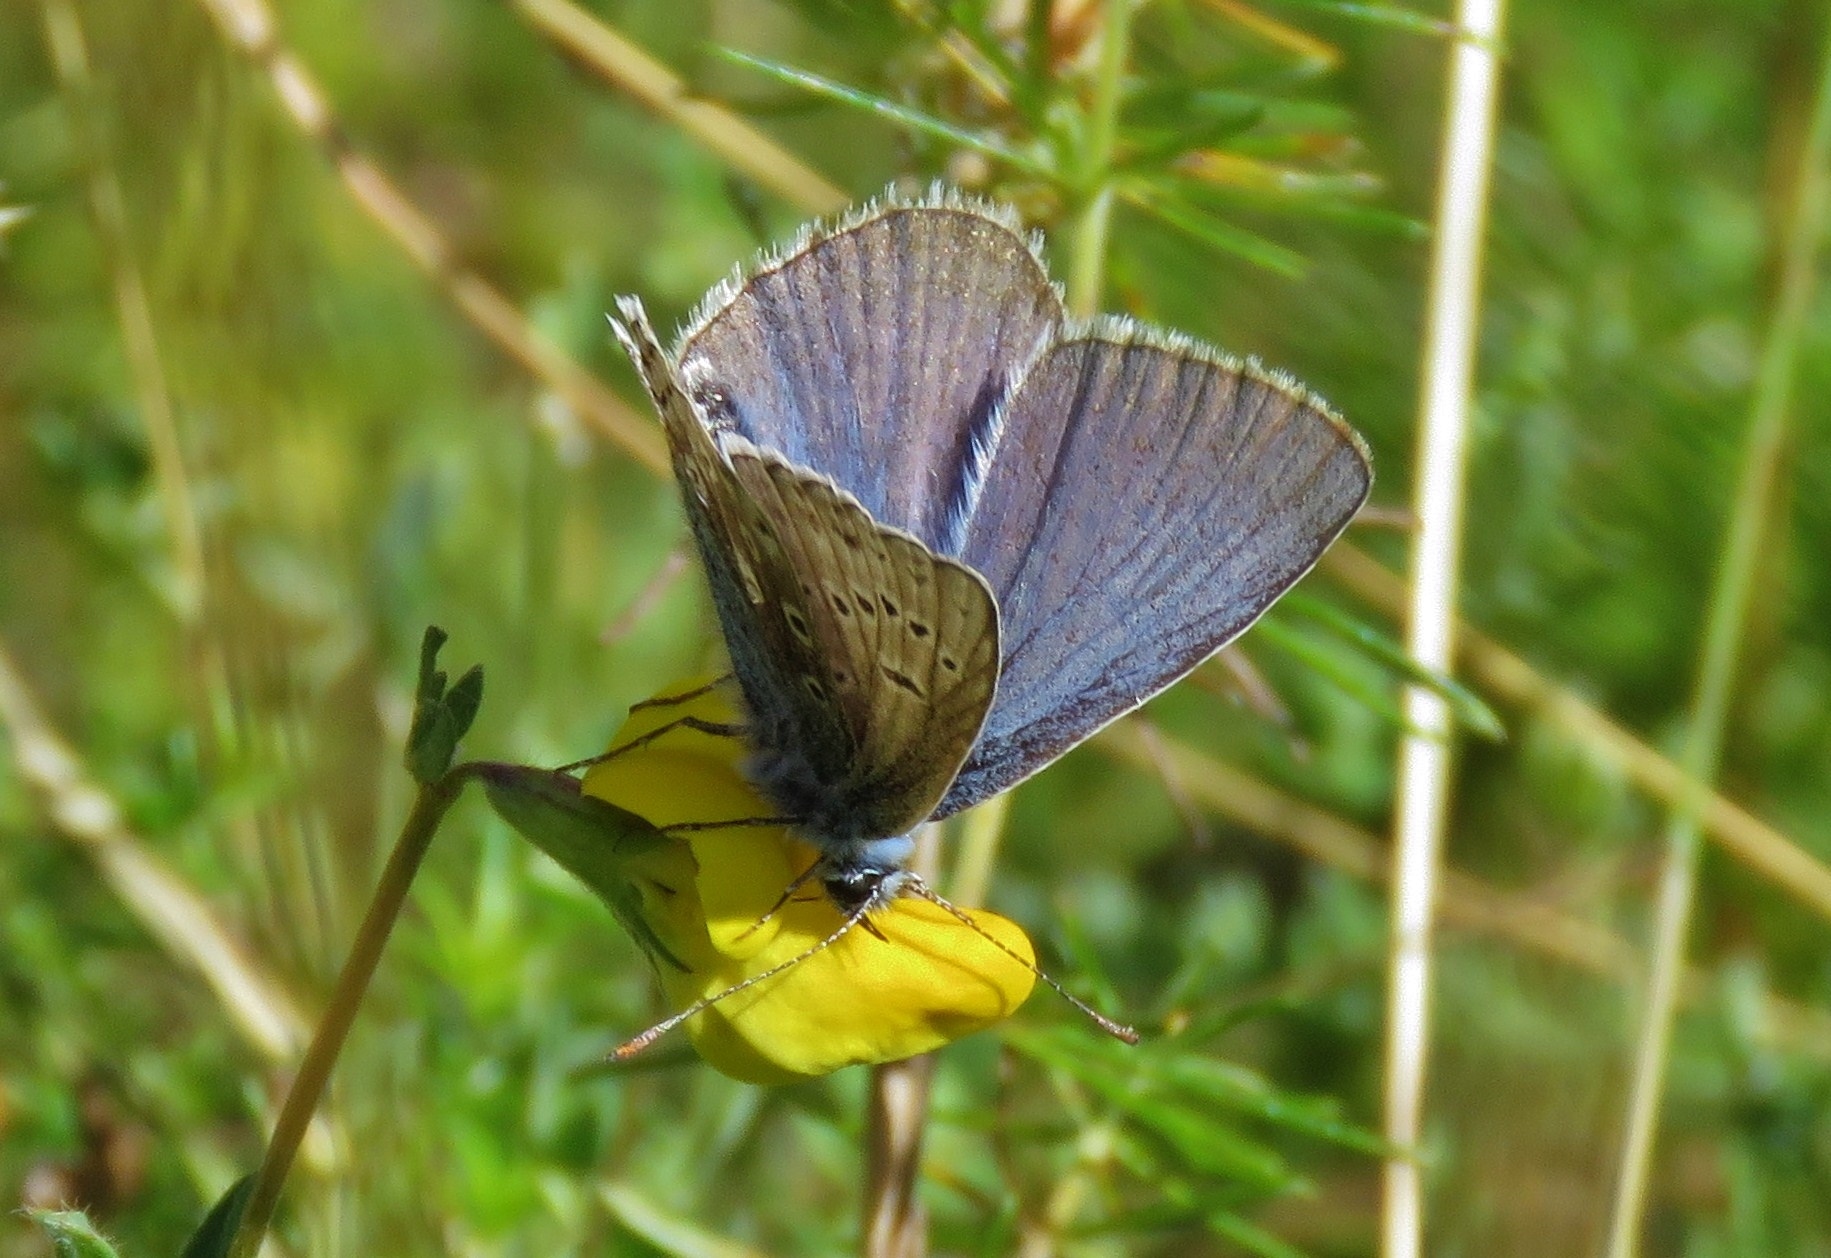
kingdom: Animalia
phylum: Arthropoda
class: Insecta
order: Lepidoptera
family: Lycaenidae
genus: Polyommatus
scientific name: Polyommatus icarus
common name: Common blue
